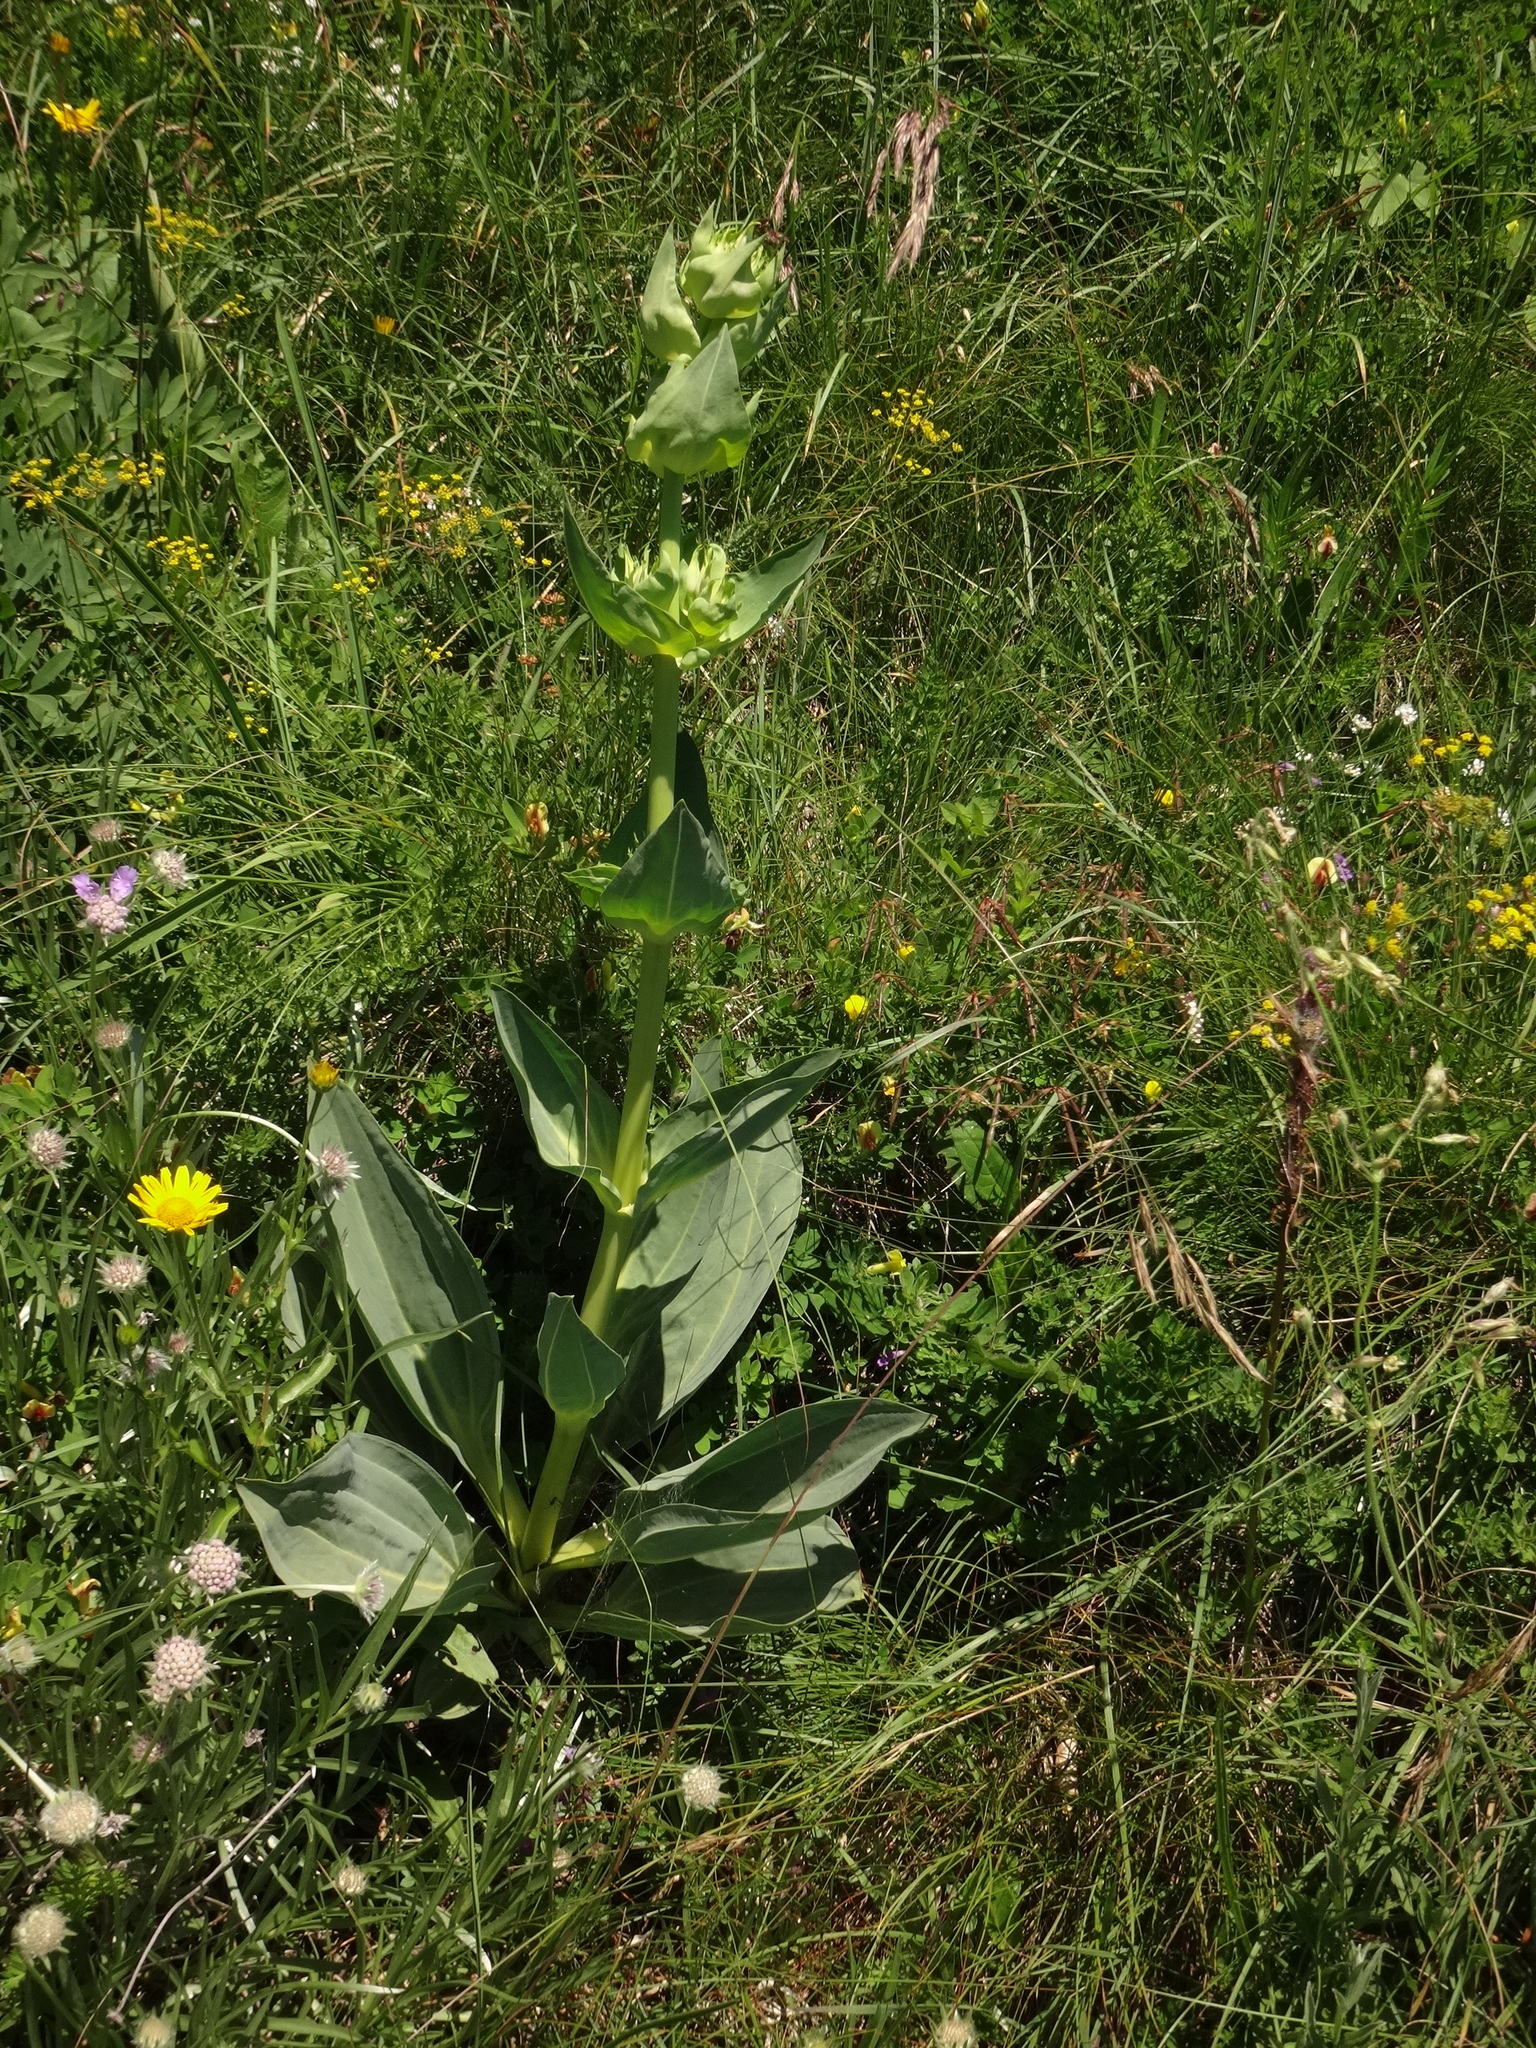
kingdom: Plantae
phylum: Tracheophyta
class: Magnoliopsida
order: Gentianales
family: Gentianaceae
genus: Gentiana
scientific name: Gentiana lutea
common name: Great yellow gentian
